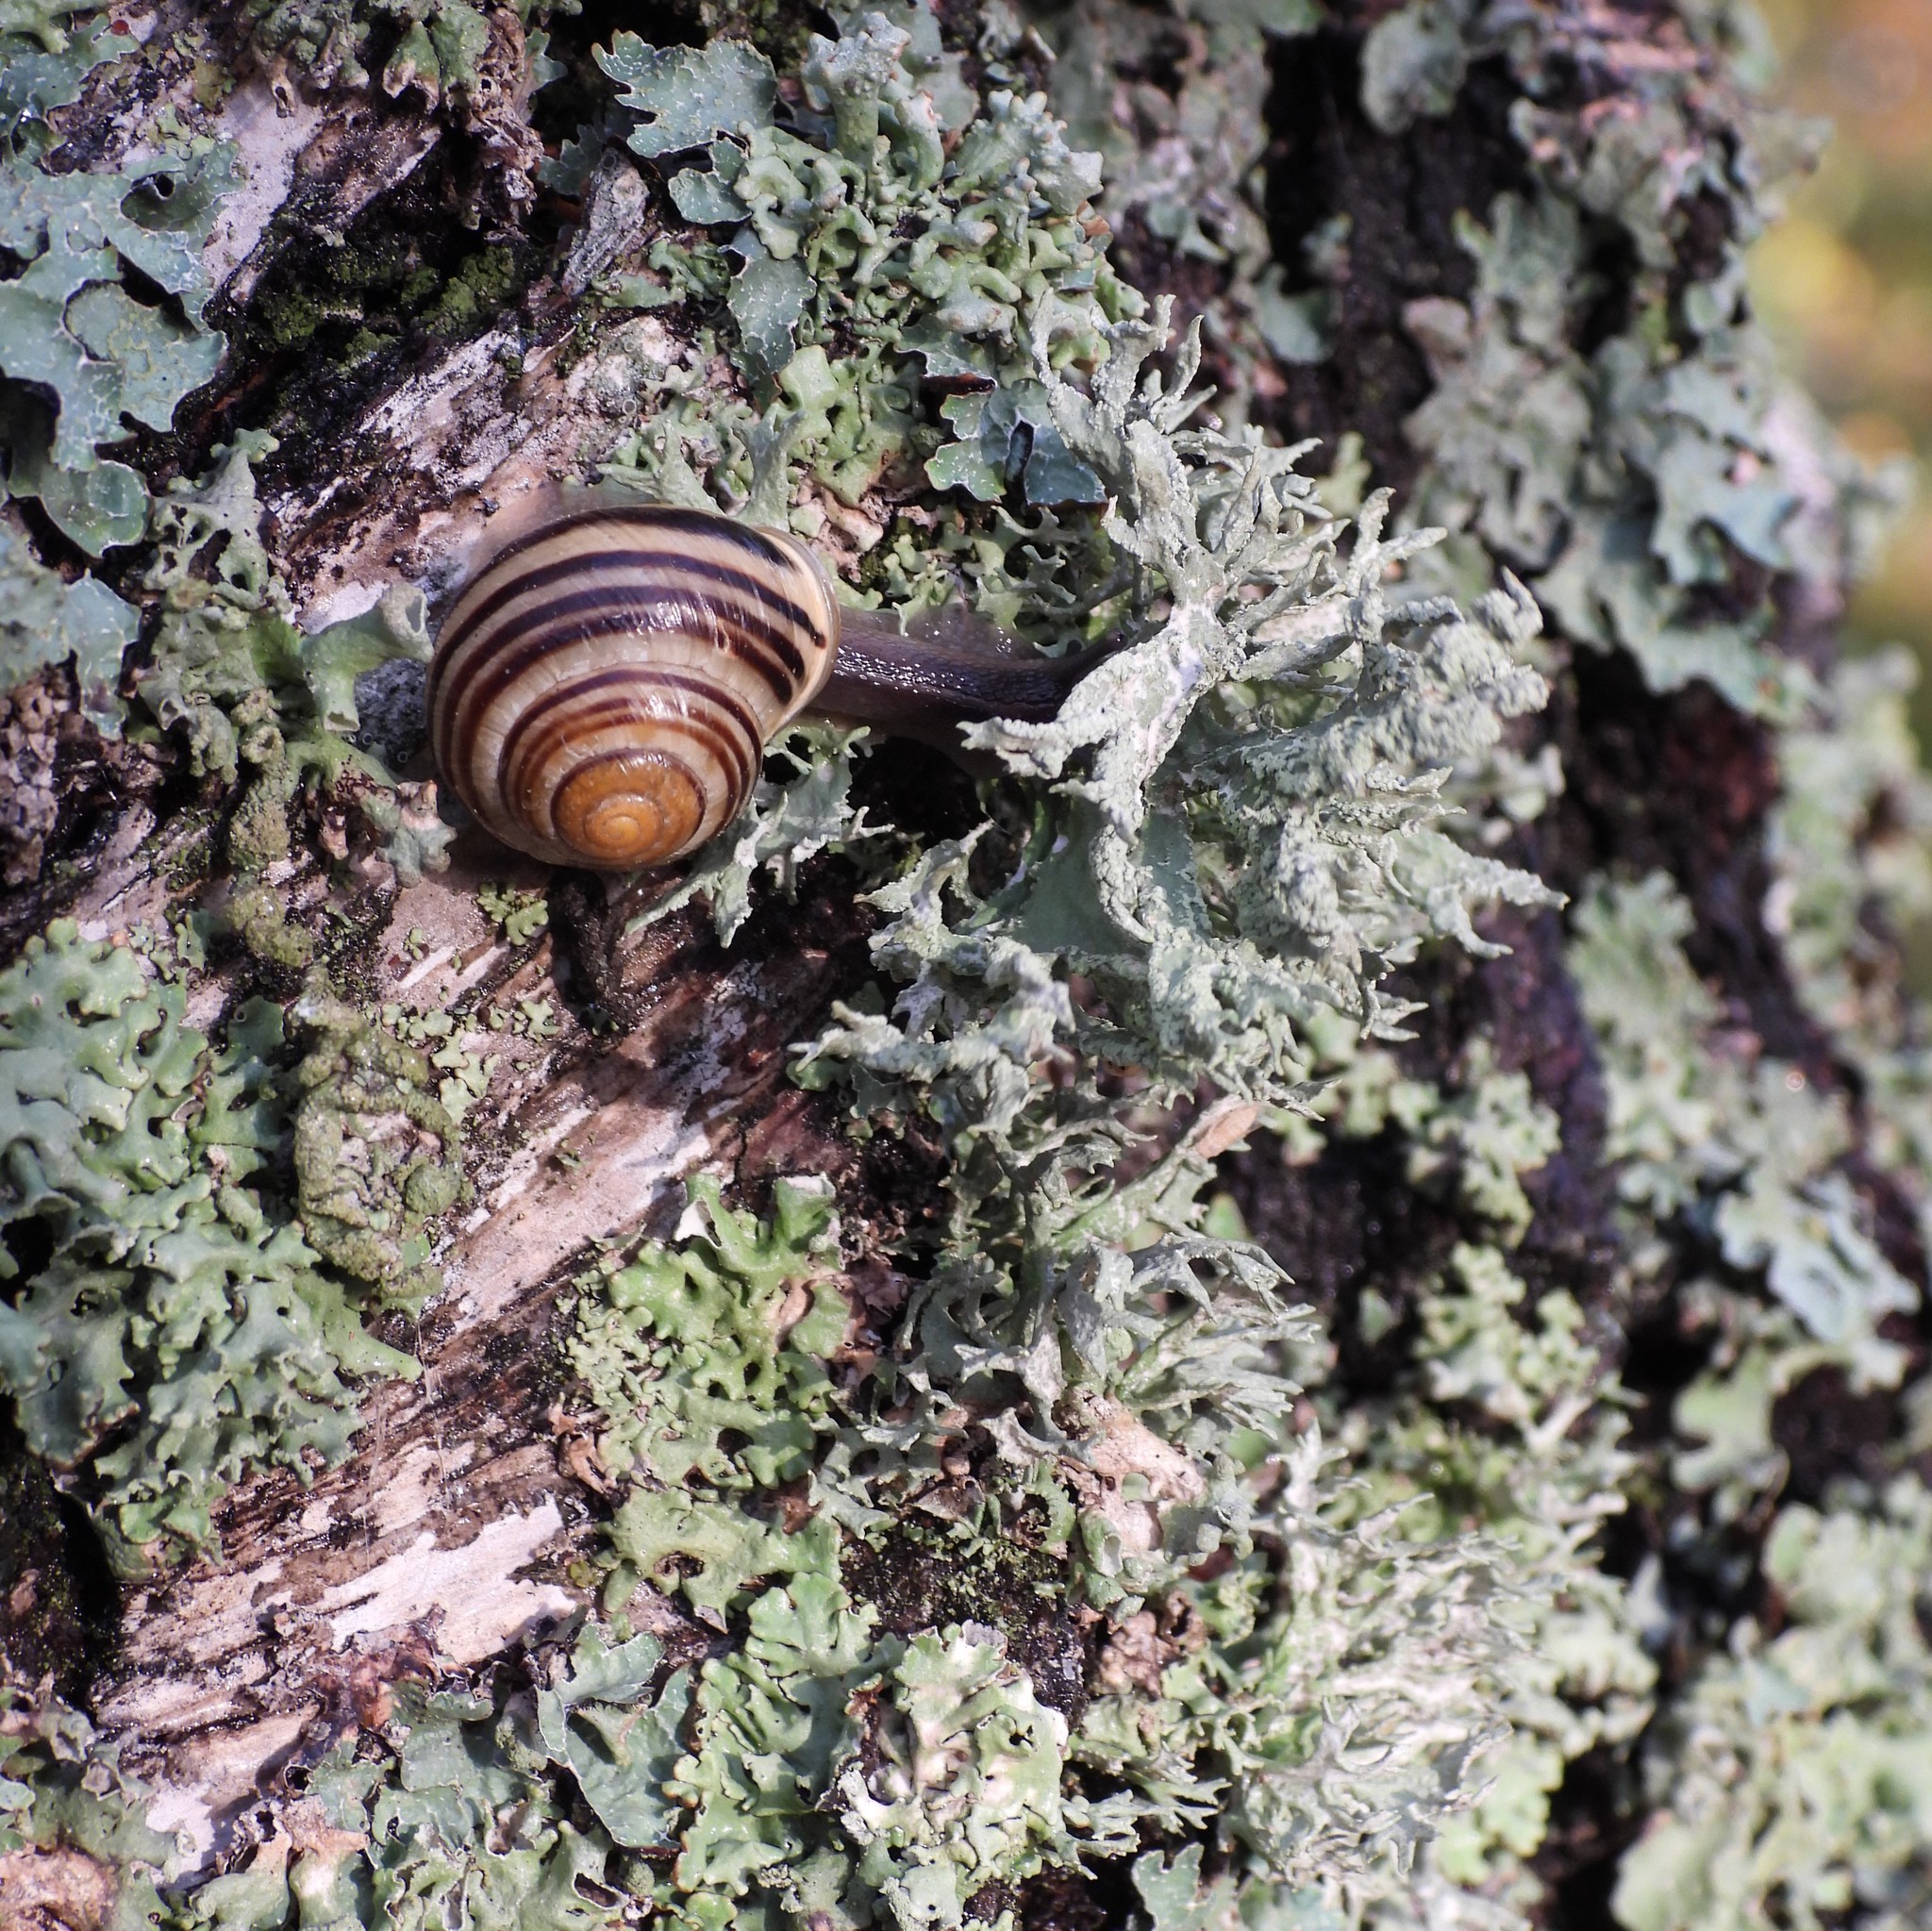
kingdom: Fungi
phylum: Ascomycota
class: Lecanoromycetes
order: Lecanorales
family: Parmeliaceae
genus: Evernia
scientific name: Evernia prunastri
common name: Oak moss
